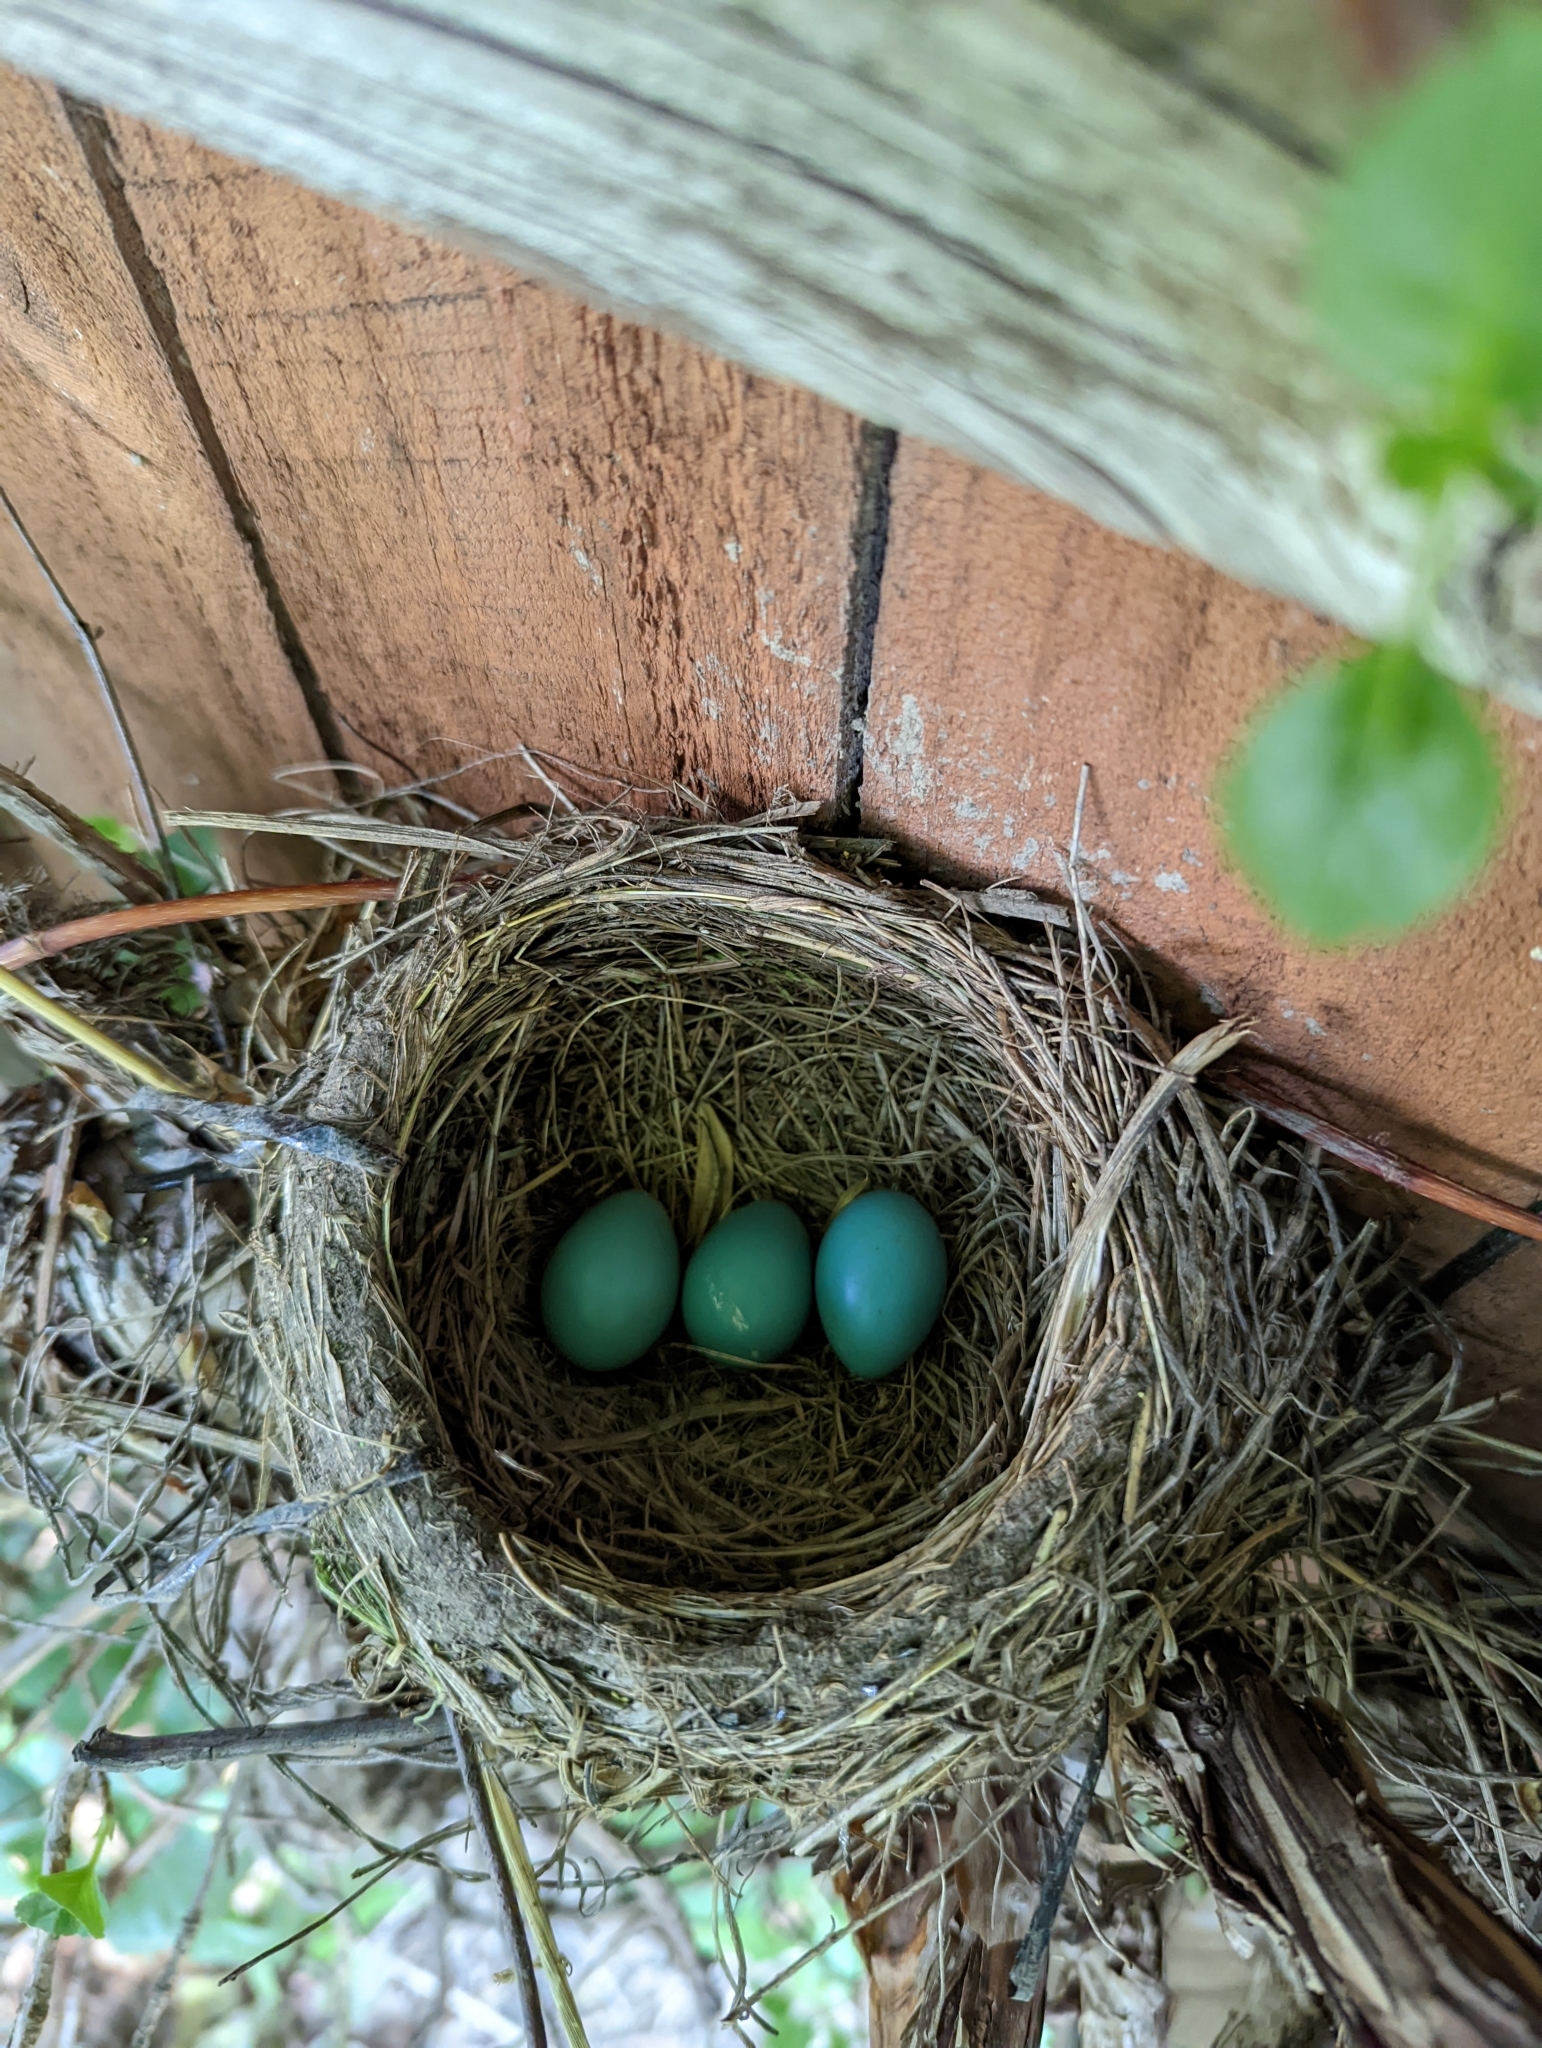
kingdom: Animalia
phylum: Chordata
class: Aves
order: Passeriformes
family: Turdidae
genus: Turdus
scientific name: Turdus migratorius
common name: American robin
